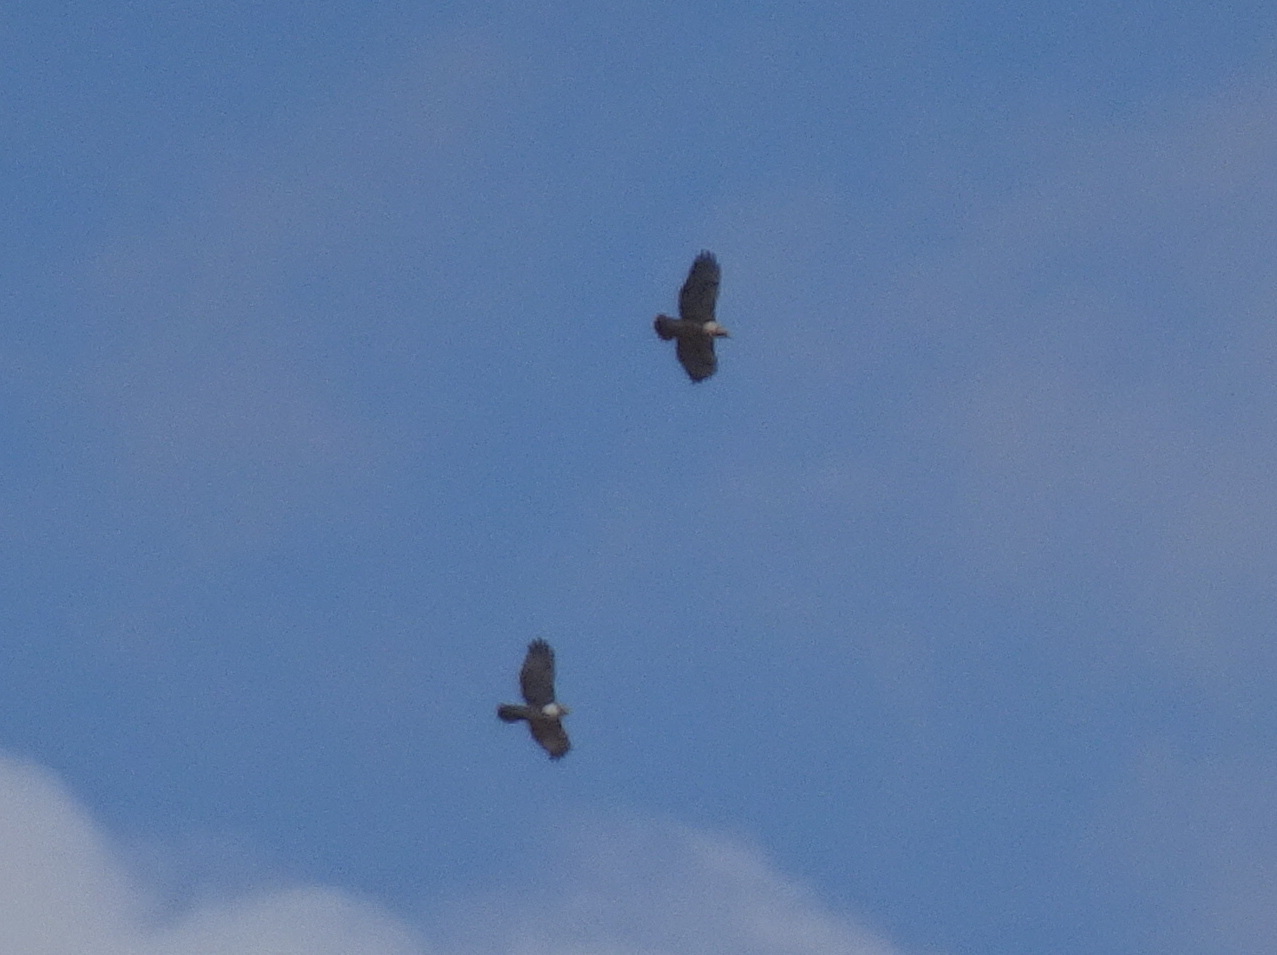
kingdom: Animalia
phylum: Chordata
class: Aves
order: Accipitriformes
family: Accipitridae
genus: Buteo
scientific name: Buteo jamaicensis
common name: Red-tailed hawk
